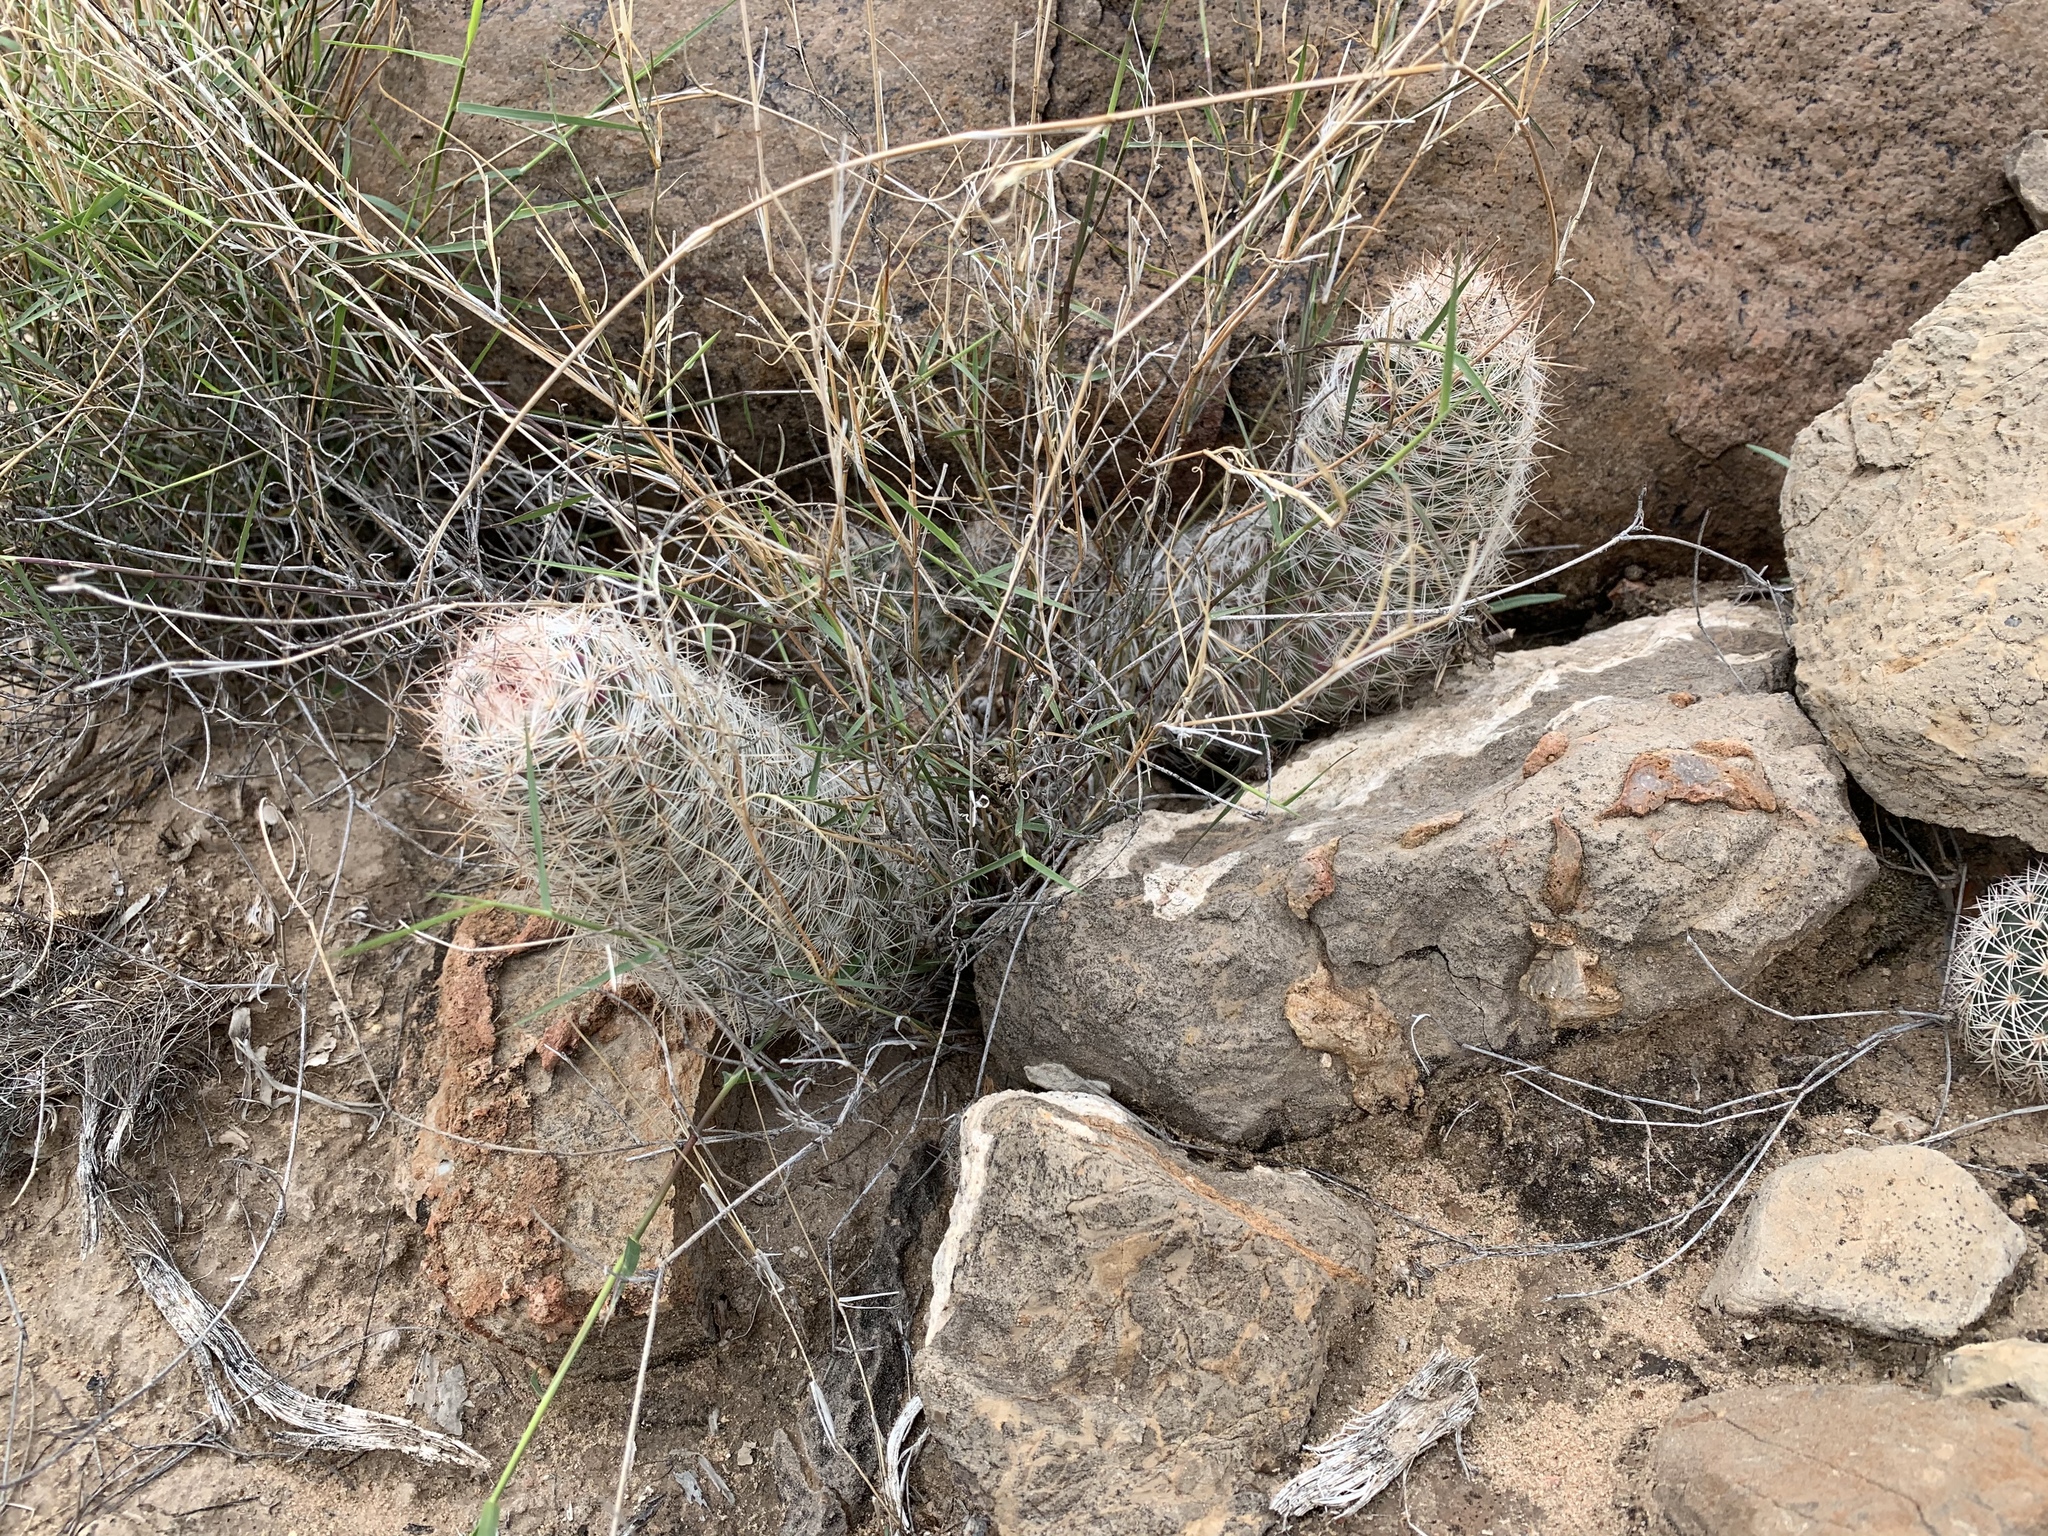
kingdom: Plantae
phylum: Tracheophyta
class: Magnoliopsida
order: Caryophyllales
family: Cactaceae
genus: Pelecyphora
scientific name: Pelecyphora tuberculosa
